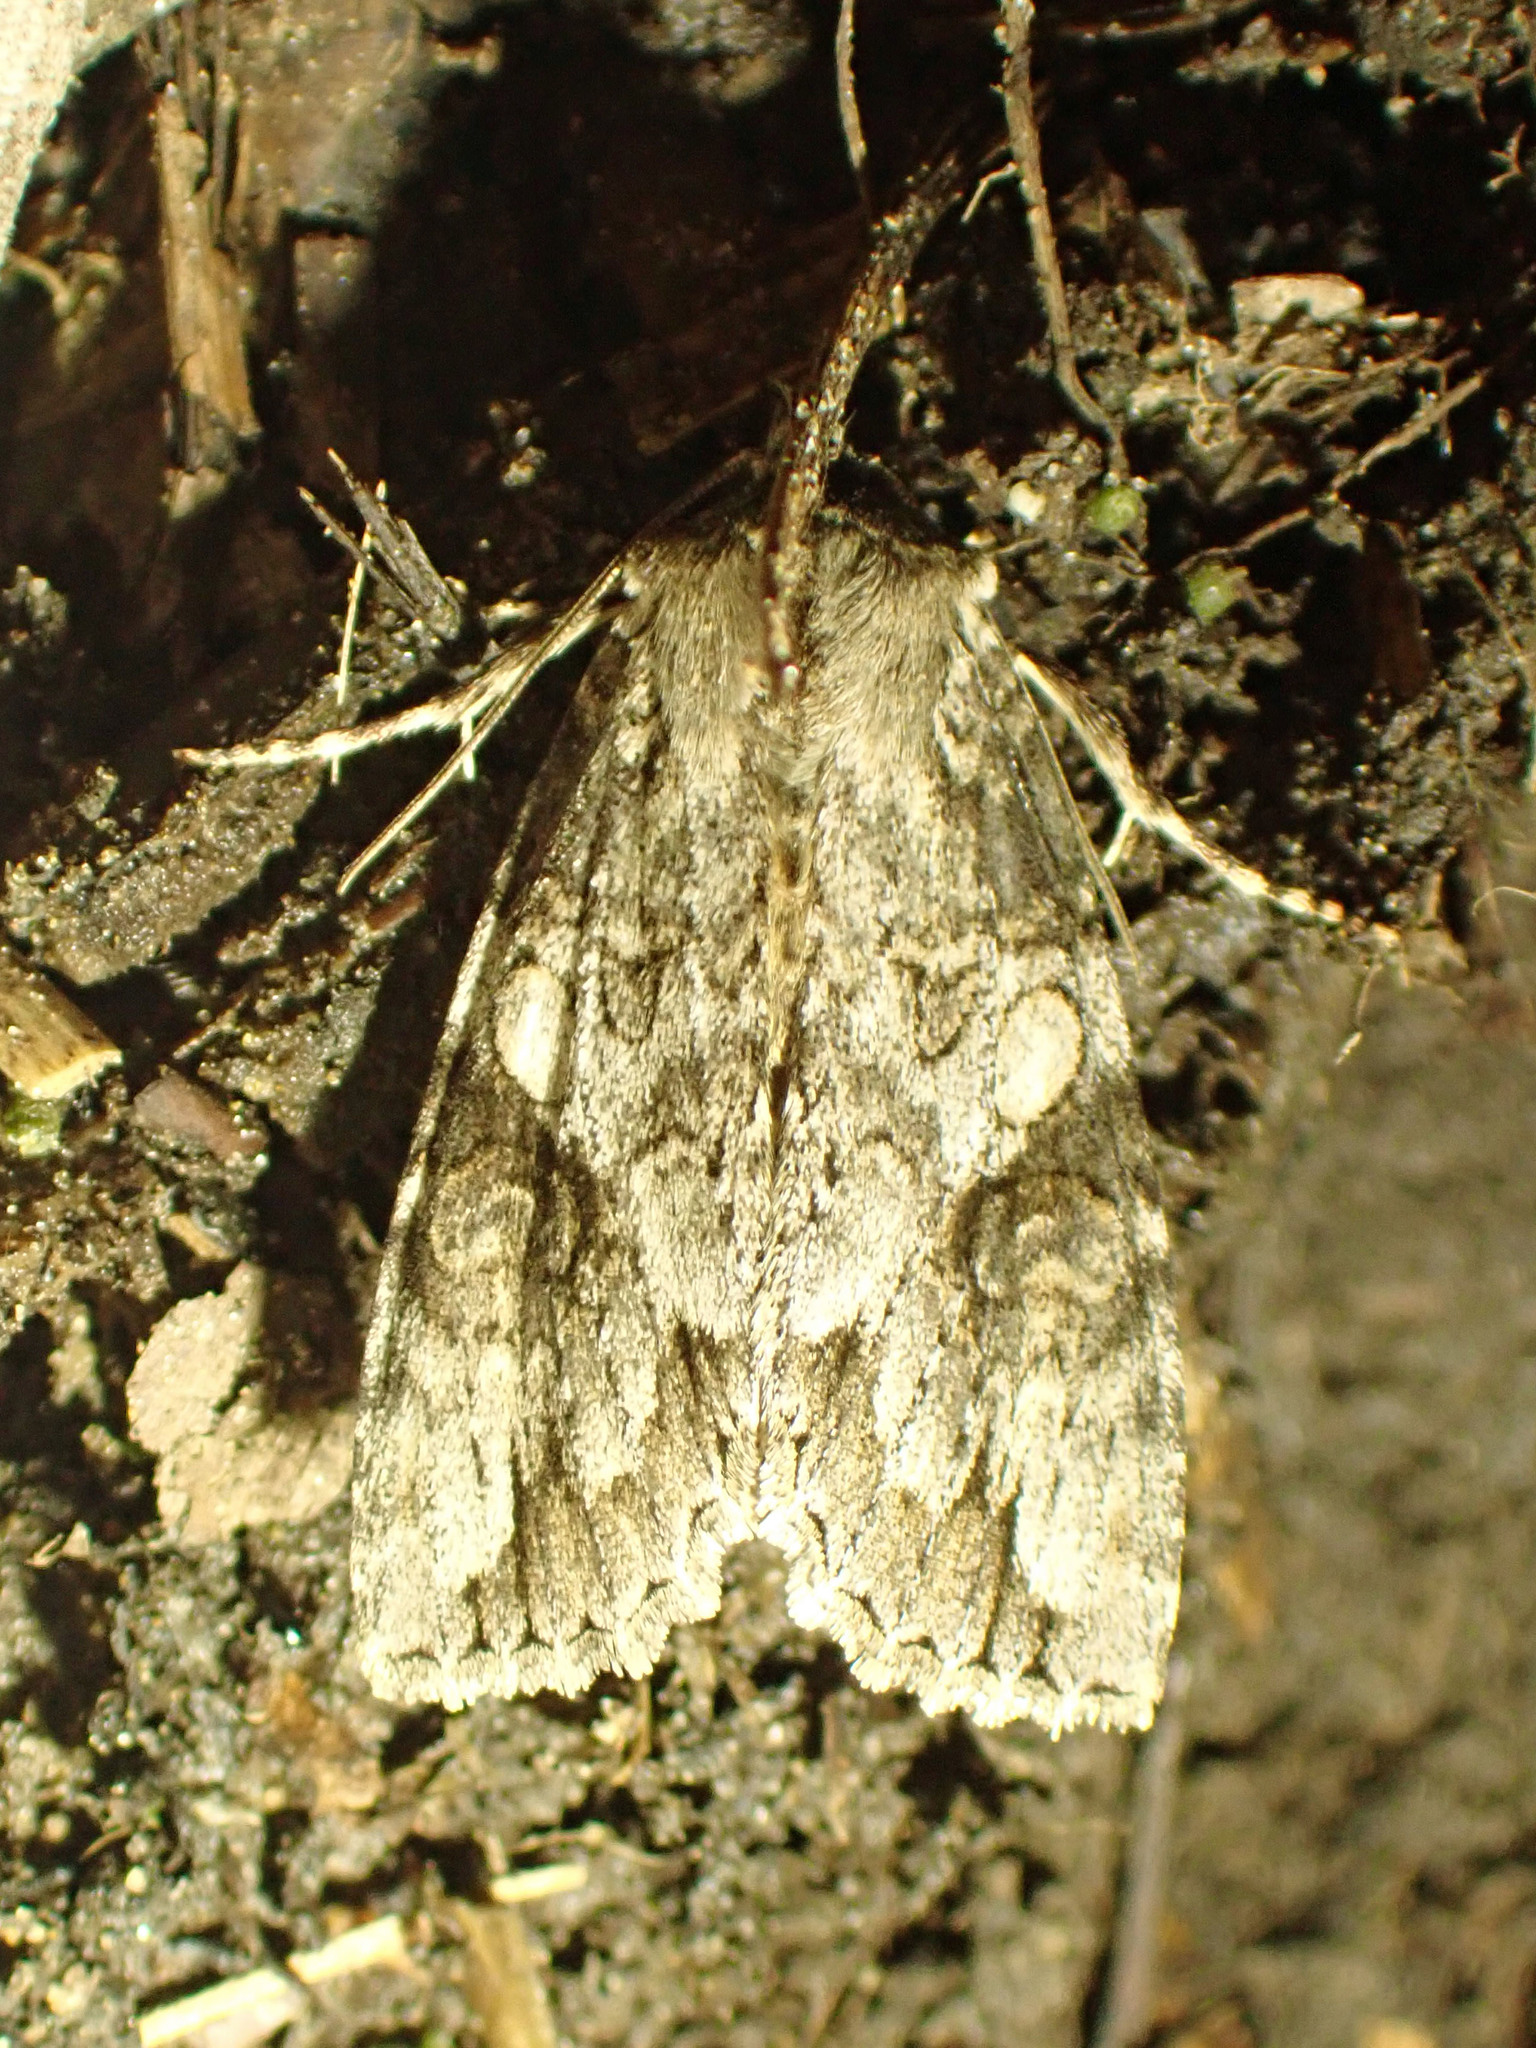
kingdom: Animalia
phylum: Arthropoda
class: Insecta
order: Lepidoptera
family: Noctuidae
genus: Achatia
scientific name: Achatia latex
